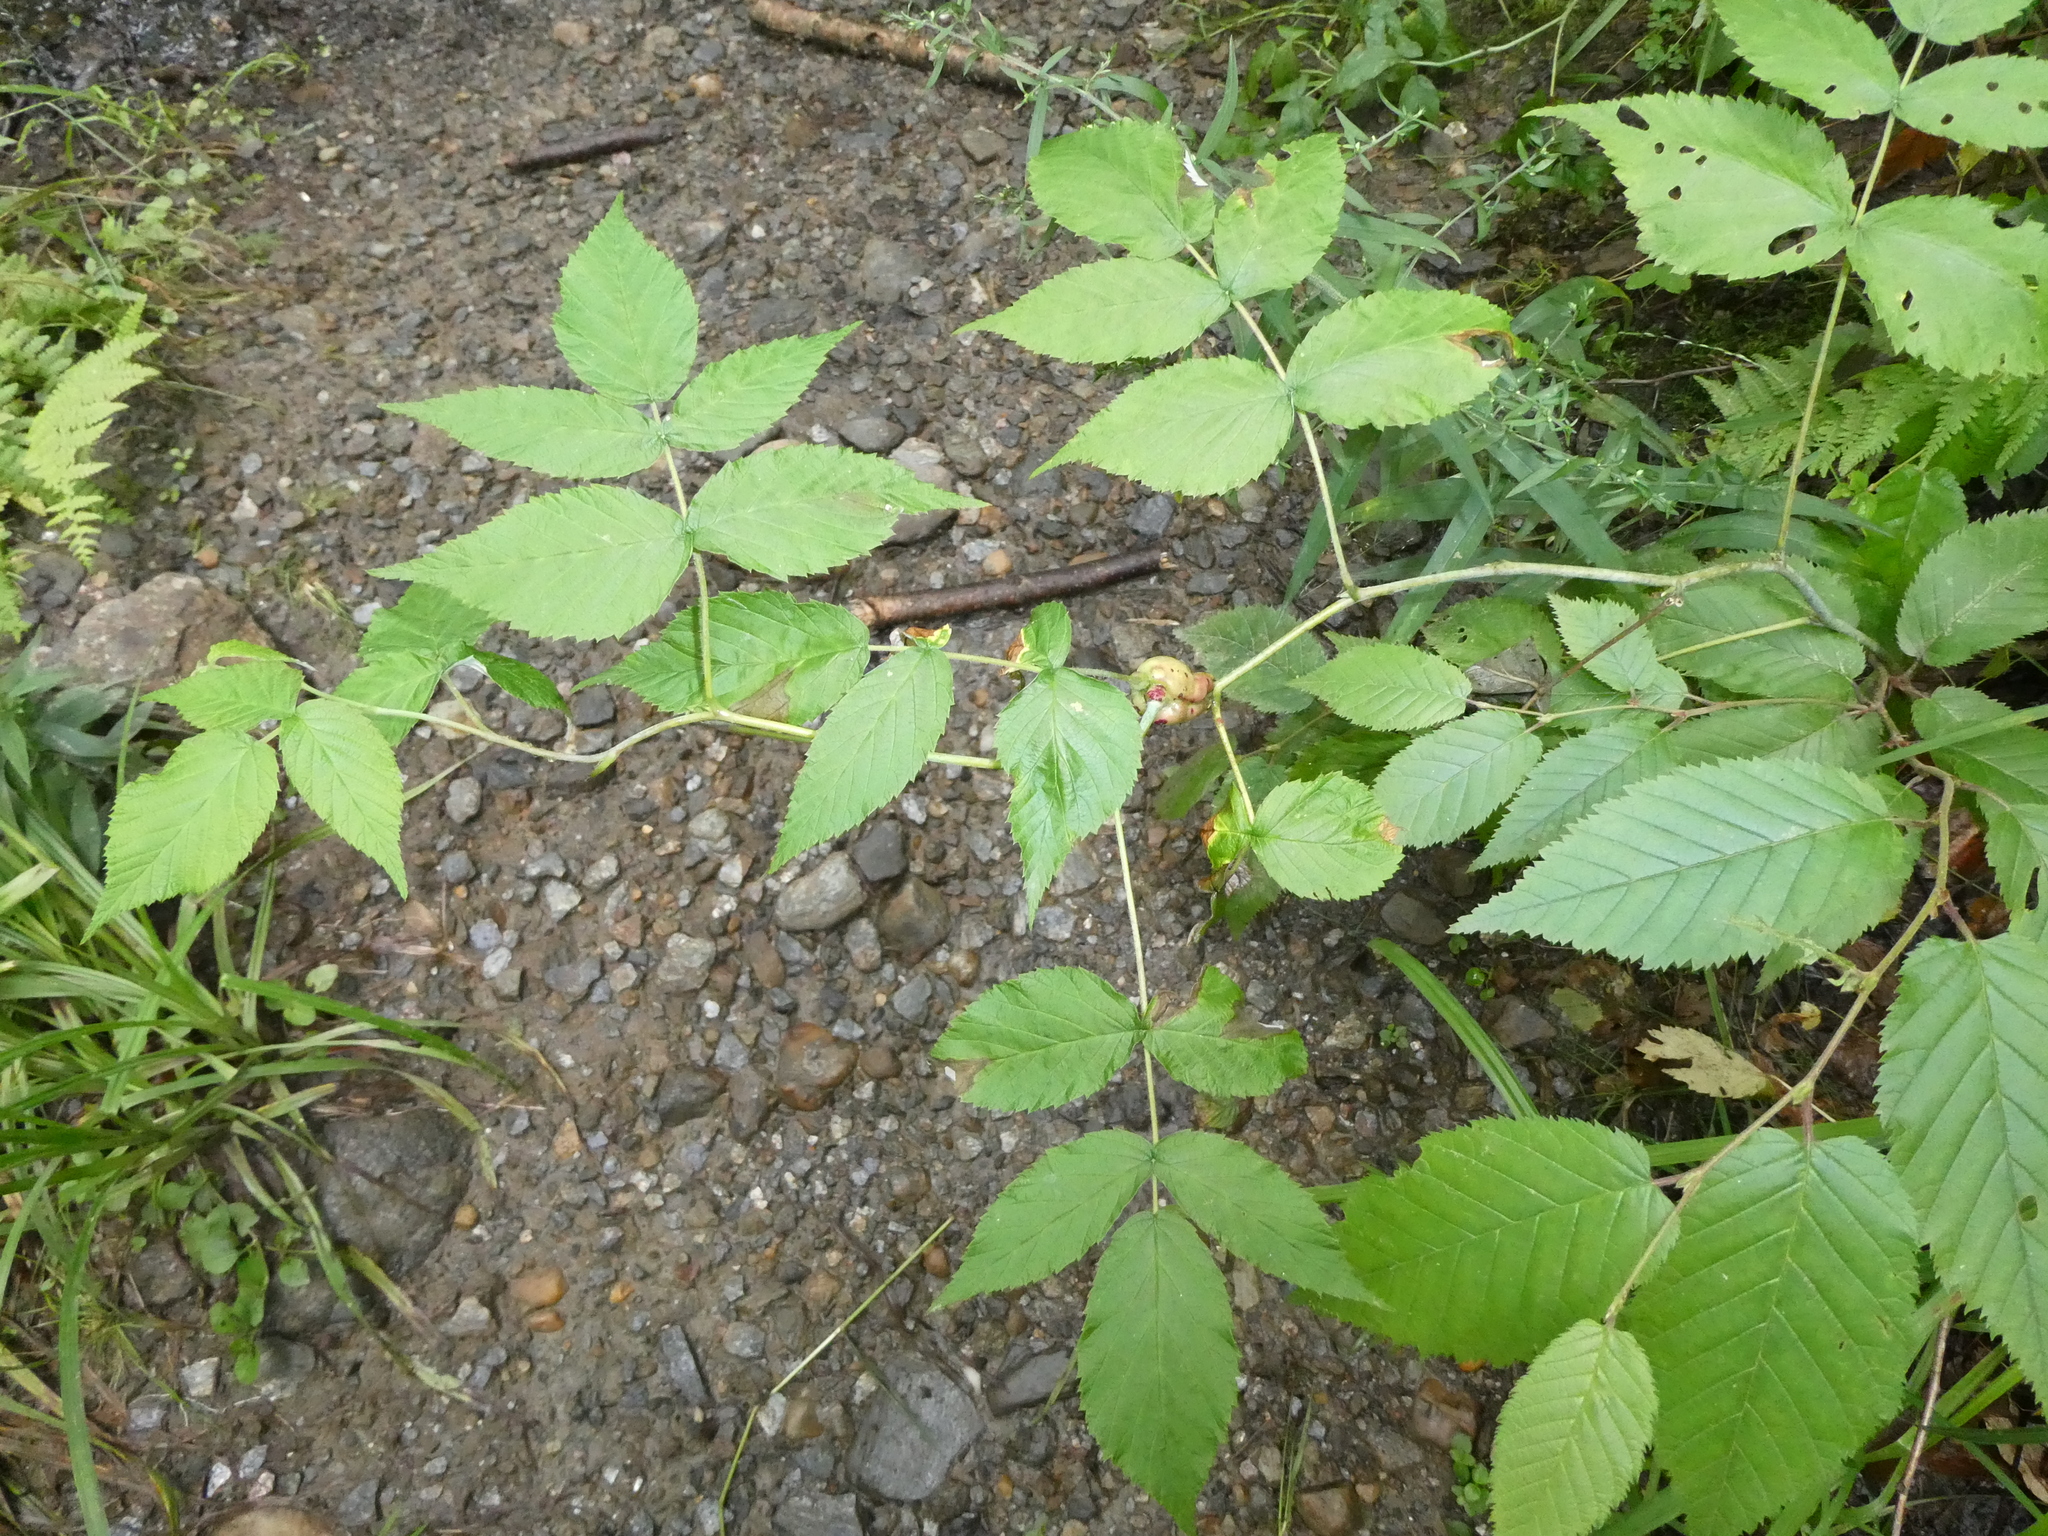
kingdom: Animalia
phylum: Arthropoda
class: Insecta
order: Hymenoptera
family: Cynipidae
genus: Diastrophus
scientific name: Diastrophus turgidus
